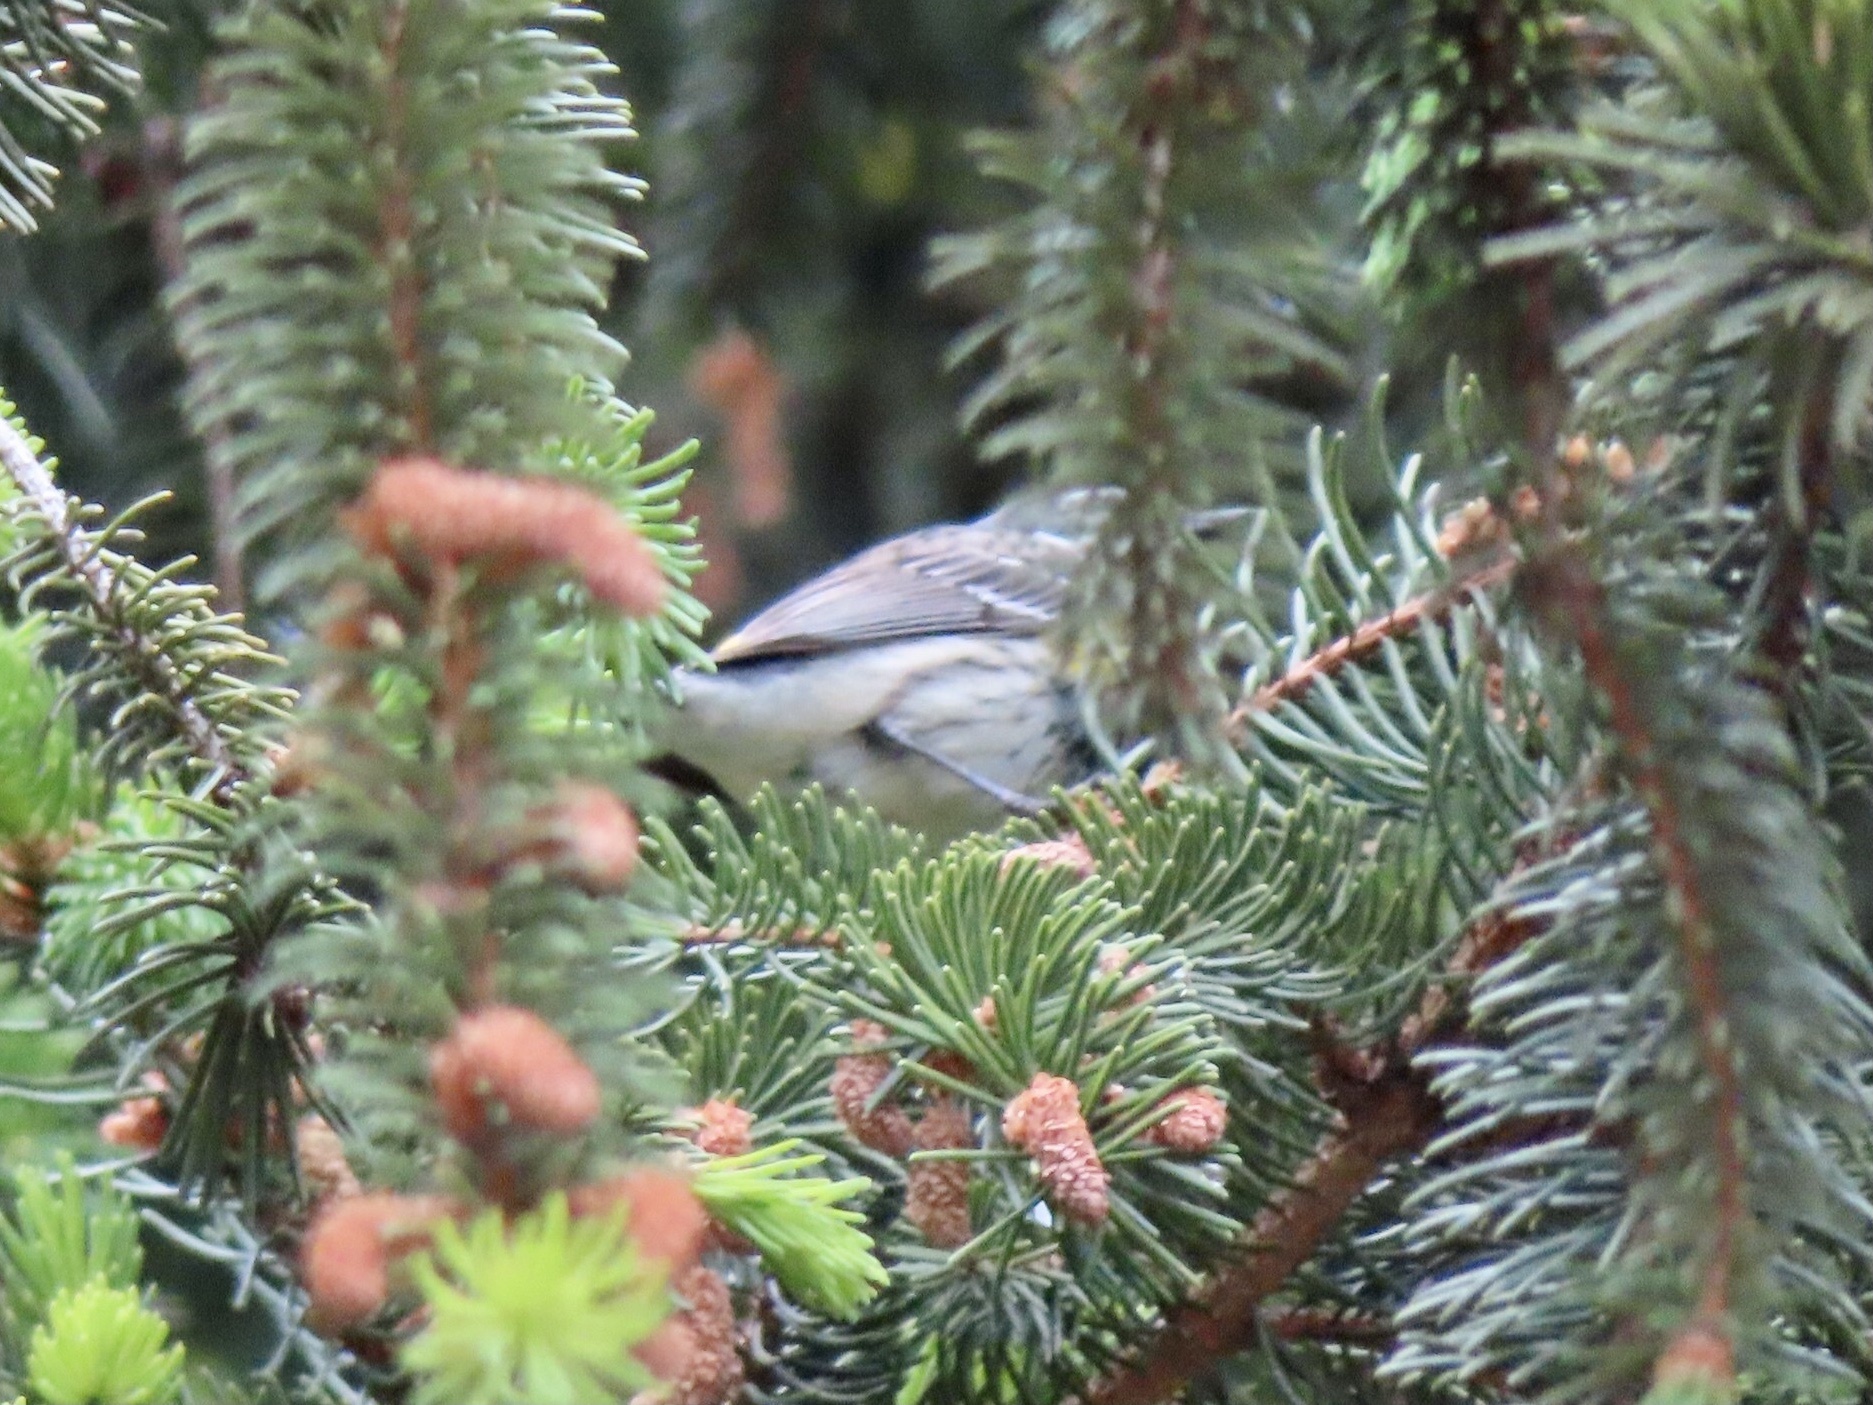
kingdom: Animalia
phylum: Chordata
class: Aves
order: Passeriformes
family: Parulidae
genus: Setophaga
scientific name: Setophaga coronata
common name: Myrtle warbler
